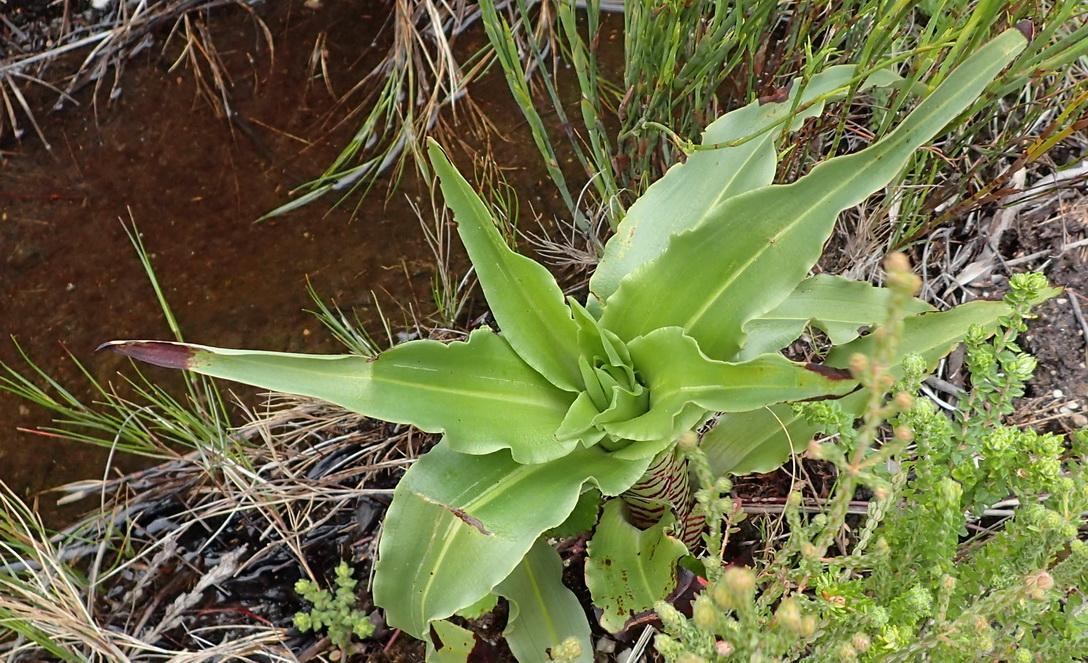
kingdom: Plantae
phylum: Tracheophyta
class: Liliopsida
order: Asparagales
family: Orchidaceae
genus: Disa
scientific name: Disa cornuta
